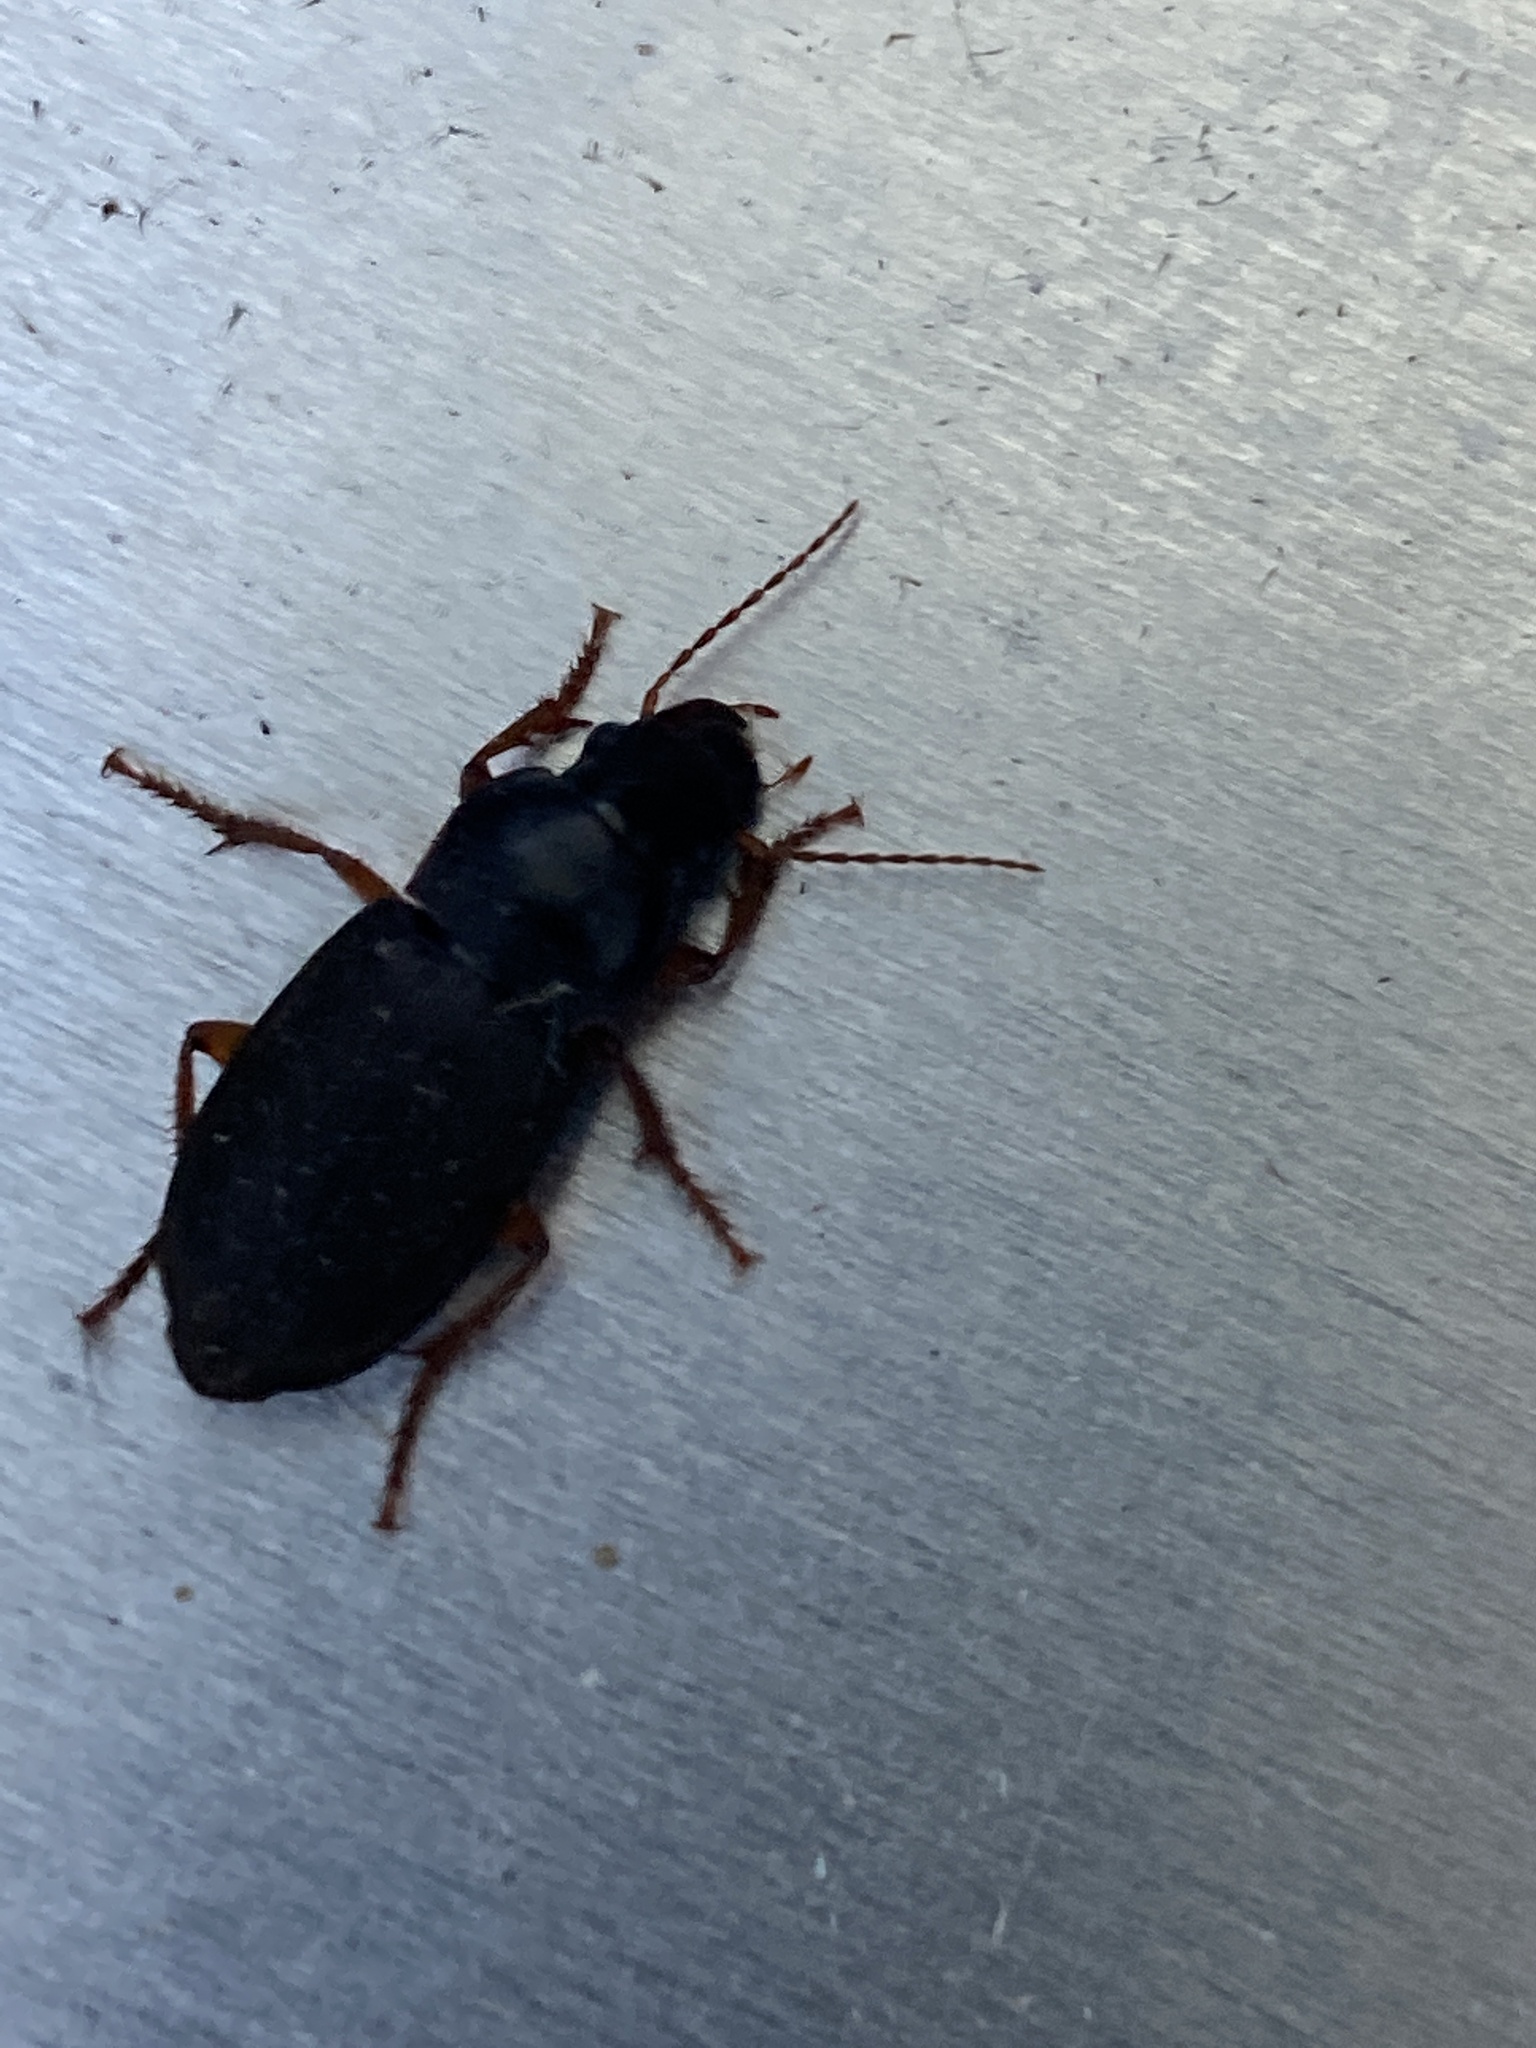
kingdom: Animalia
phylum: Arthropoda
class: Insecta
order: Coleoptera
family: Carabidae
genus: Harpalus
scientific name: Harpalus rufipes
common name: Strawberry harp ground beetle
